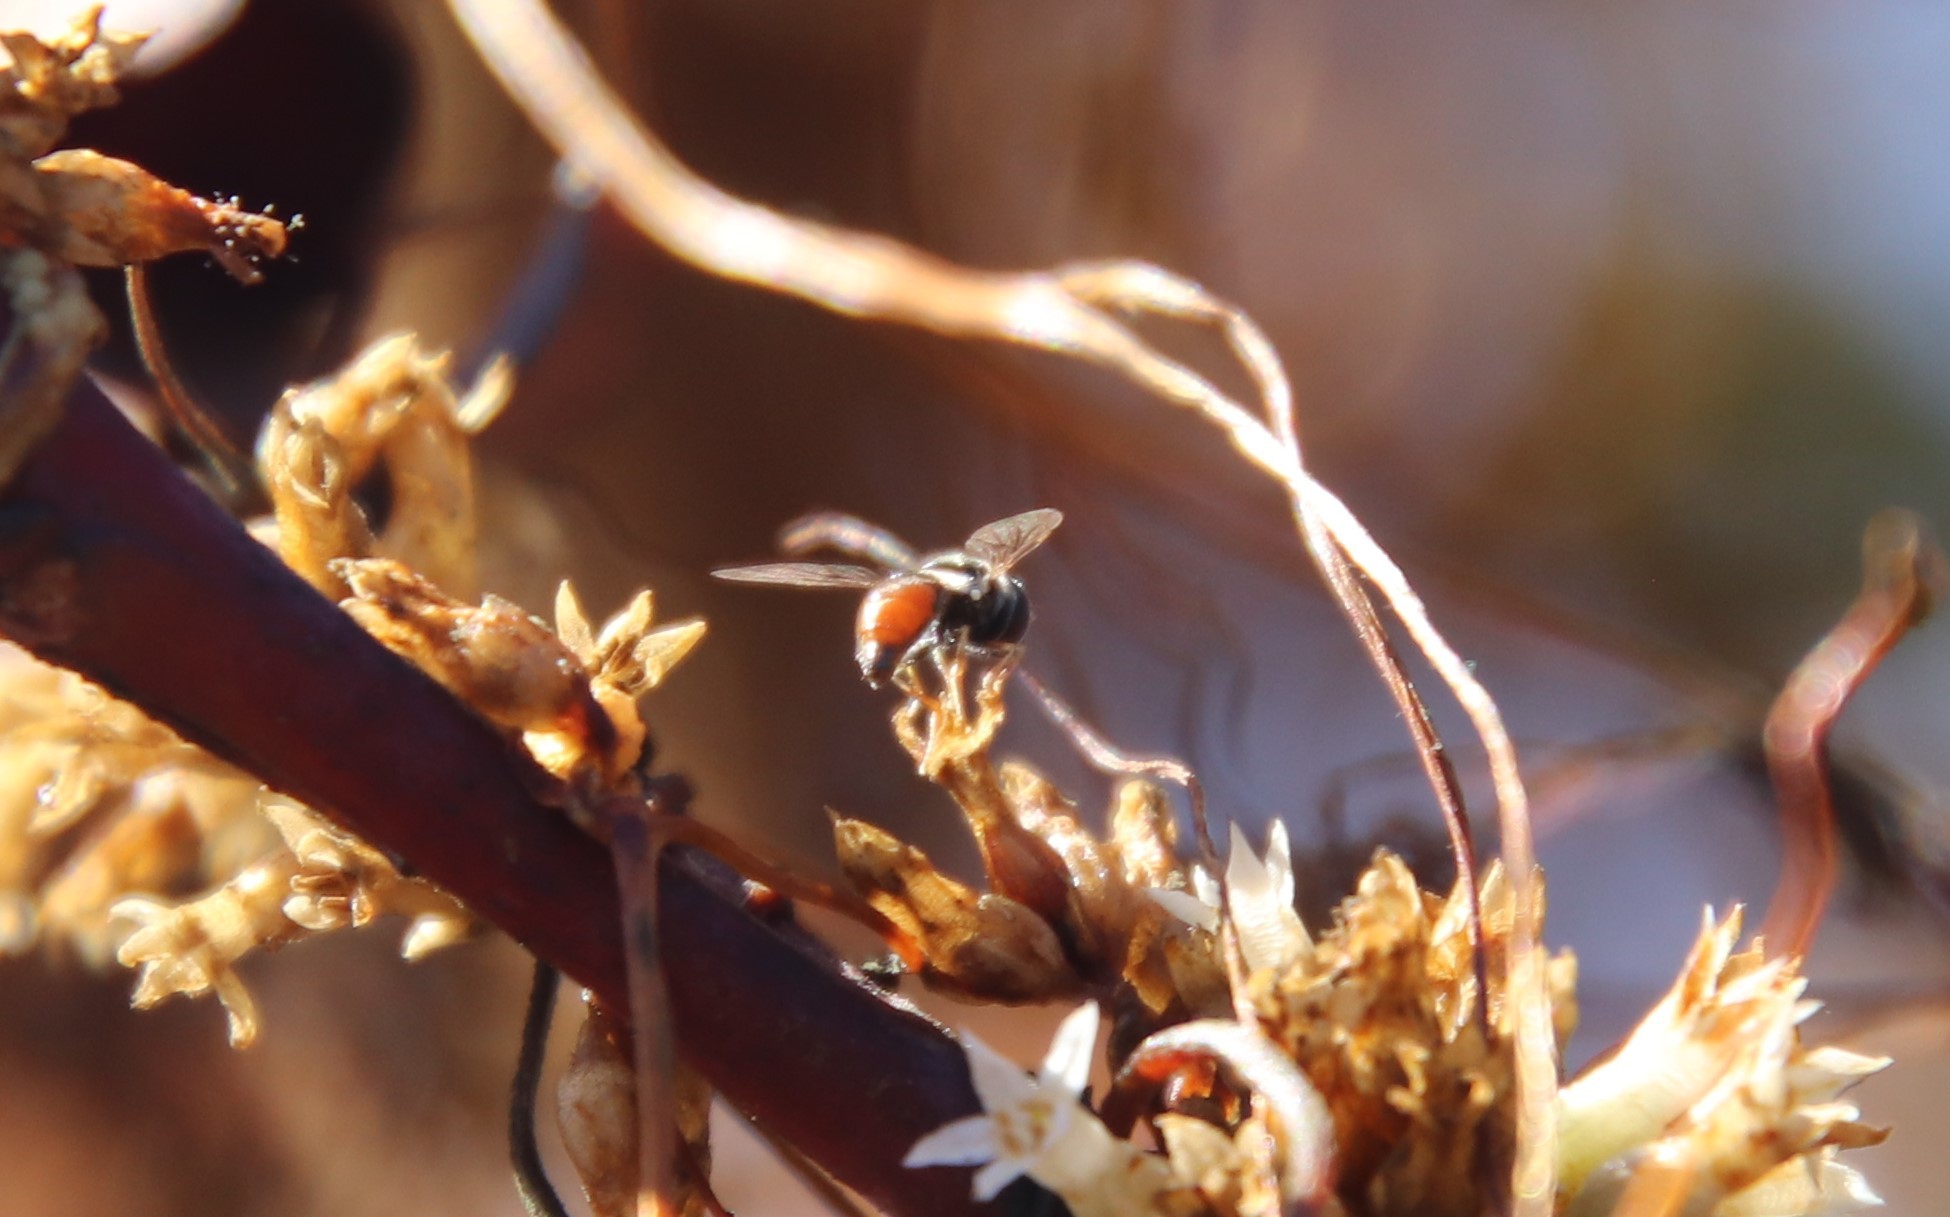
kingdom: Animalia
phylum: Arthropoda
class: Insecta
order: Diptera
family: Syrphidae
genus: Paragus
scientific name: Paragus haemorrhous
